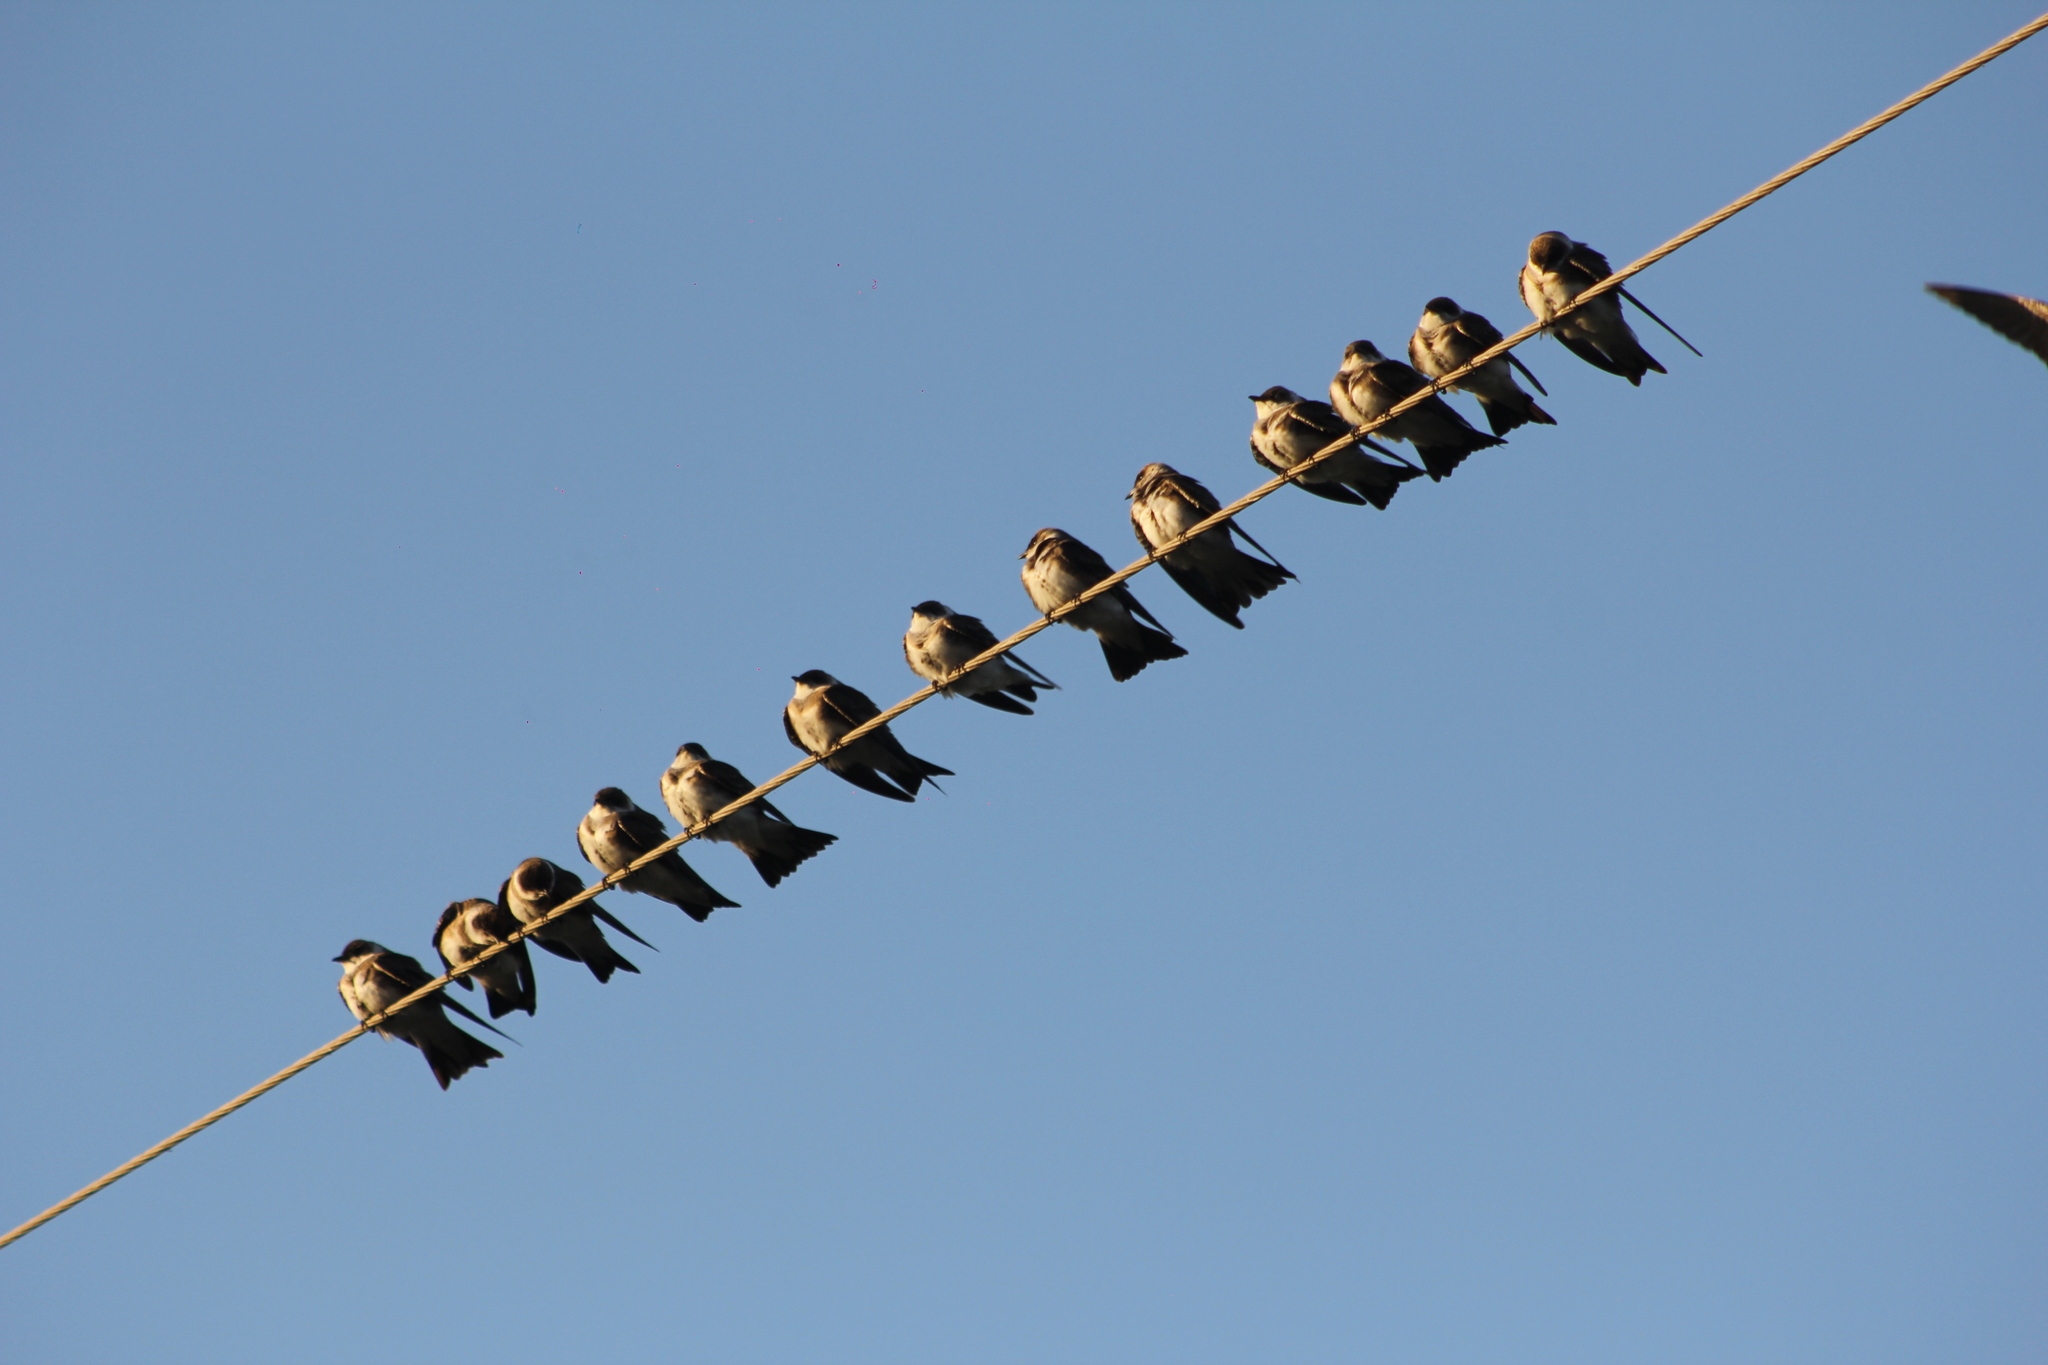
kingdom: Animalia
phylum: Chordata
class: Aves
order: Passeriformes
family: Hirundinidae
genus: Progne
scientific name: Progne tapera
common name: Brown-chested martin
